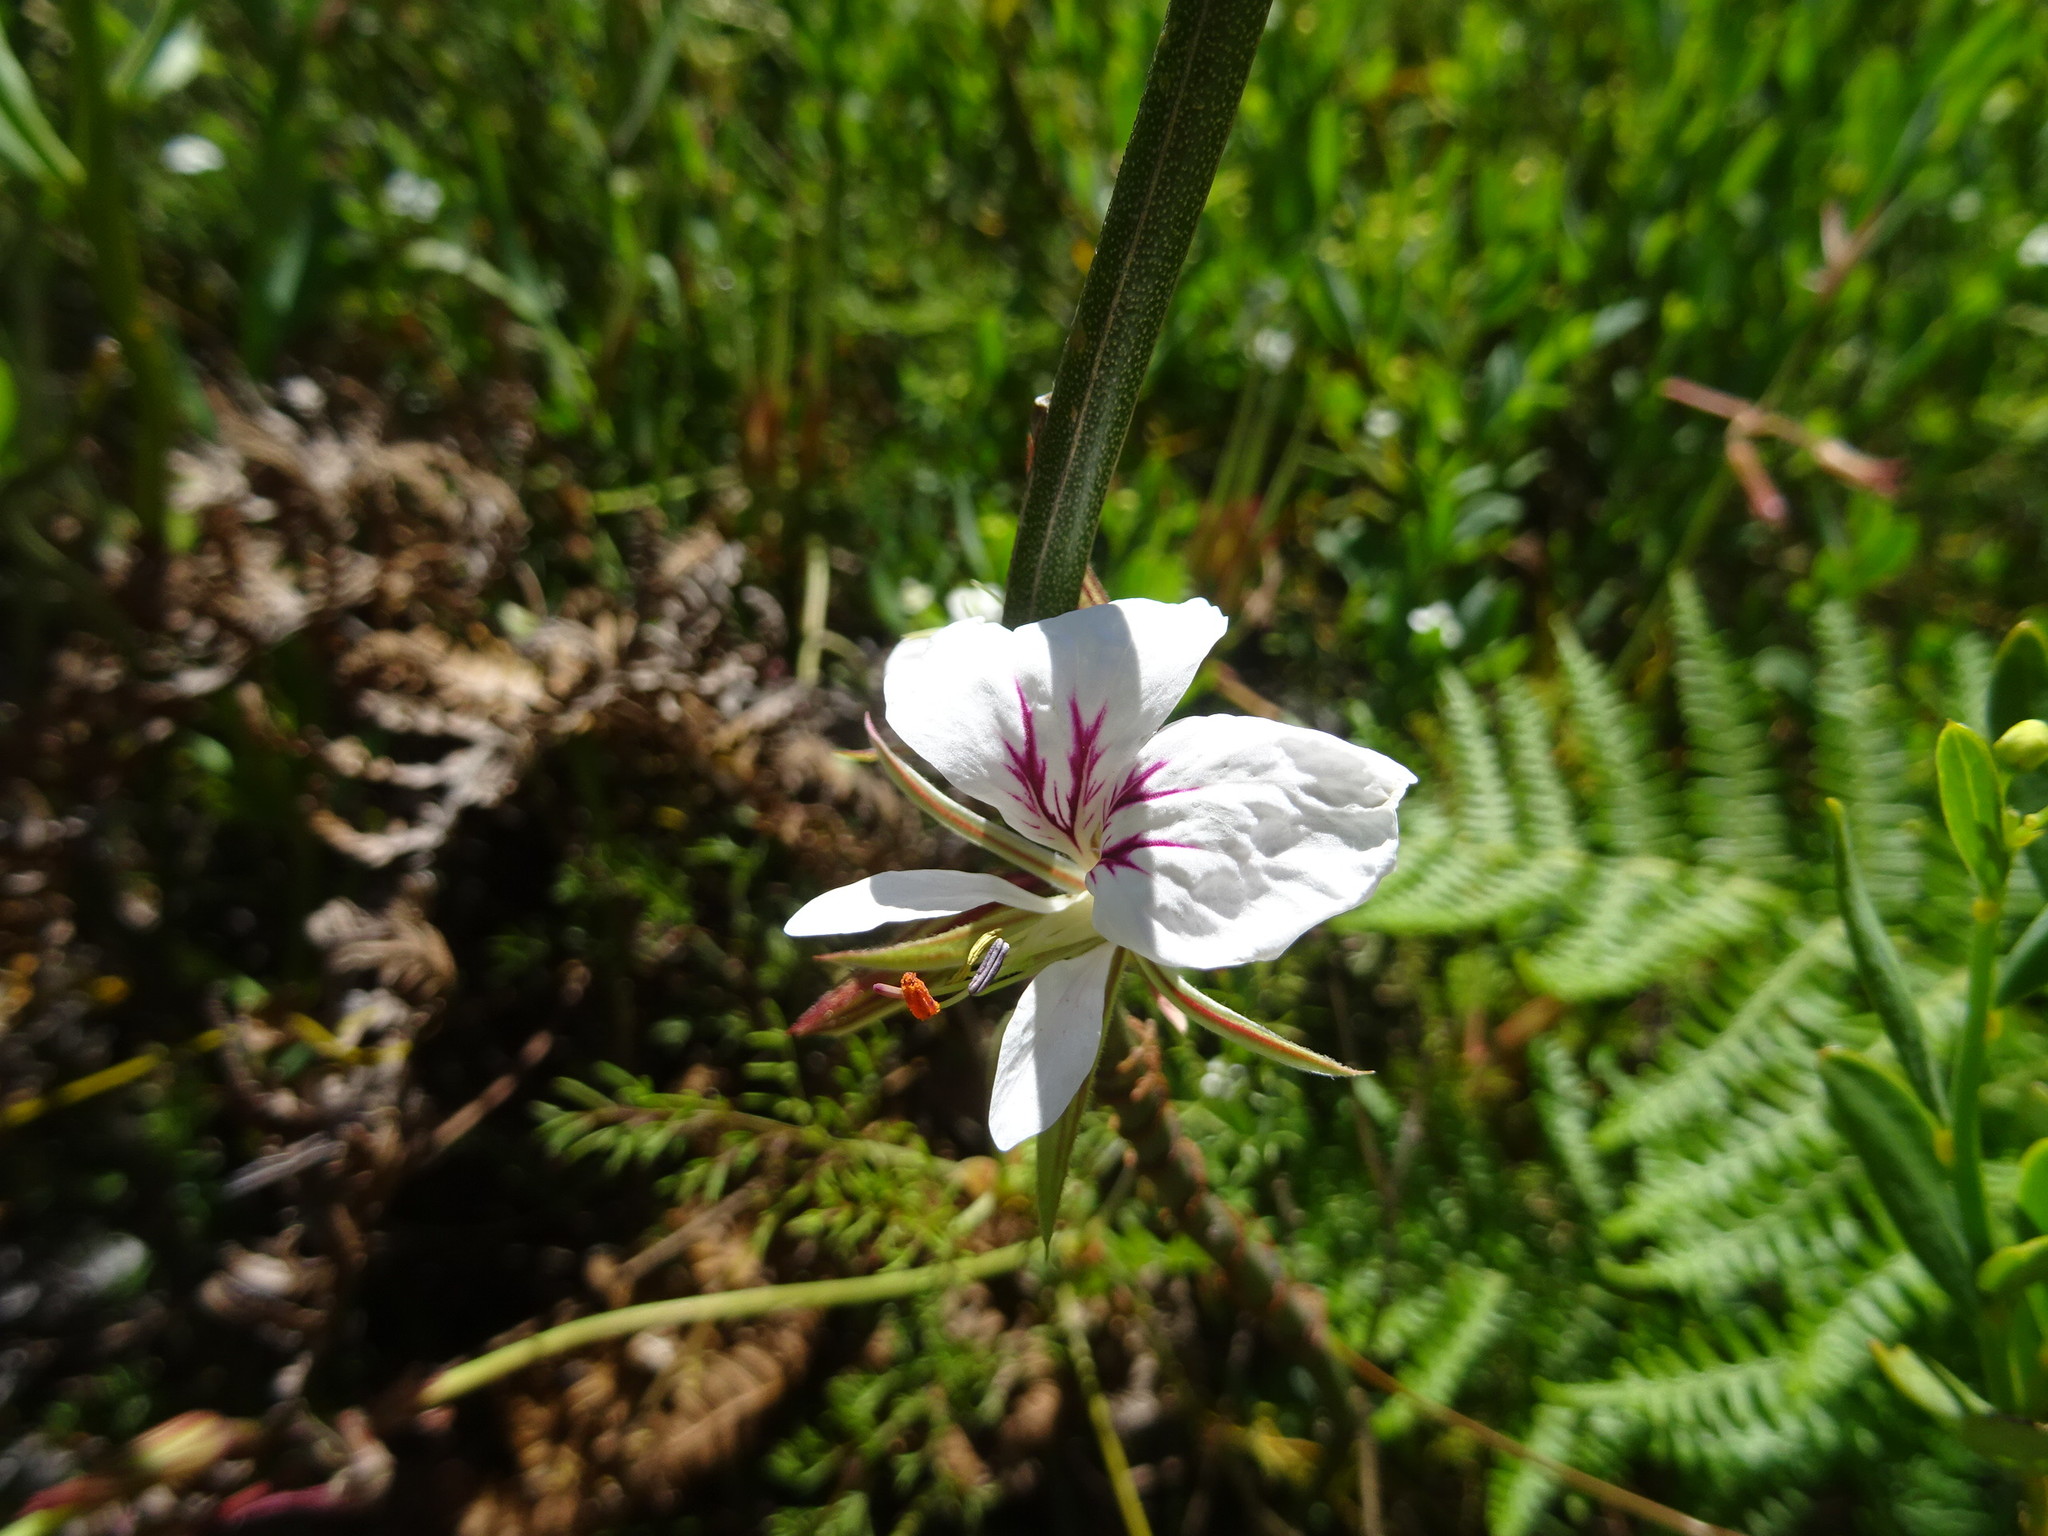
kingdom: Plantae
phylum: Tracheophyta
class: Magnoliopsida
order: Geraniales
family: Geraniaceae
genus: Pelargonium
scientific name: Pelargonium myrrhifolium
